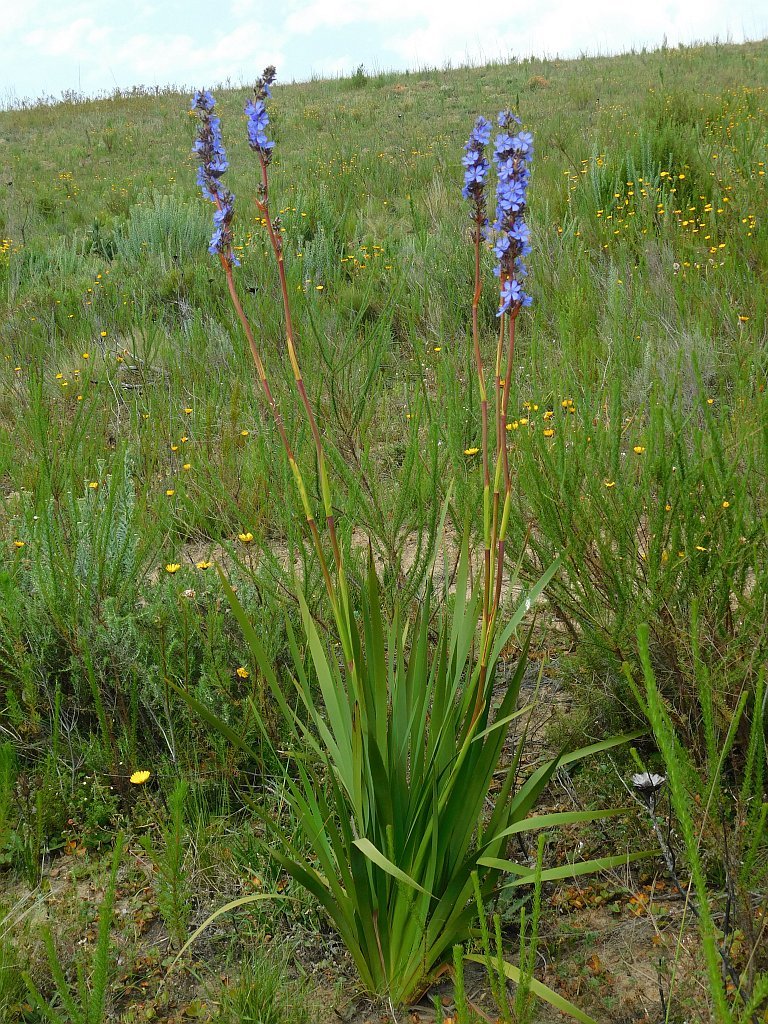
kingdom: Plantae
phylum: Tracheophyta
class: Liliopsida
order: Asparagales
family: Iridaceae
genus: Aristea
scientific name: Aristea capitata
